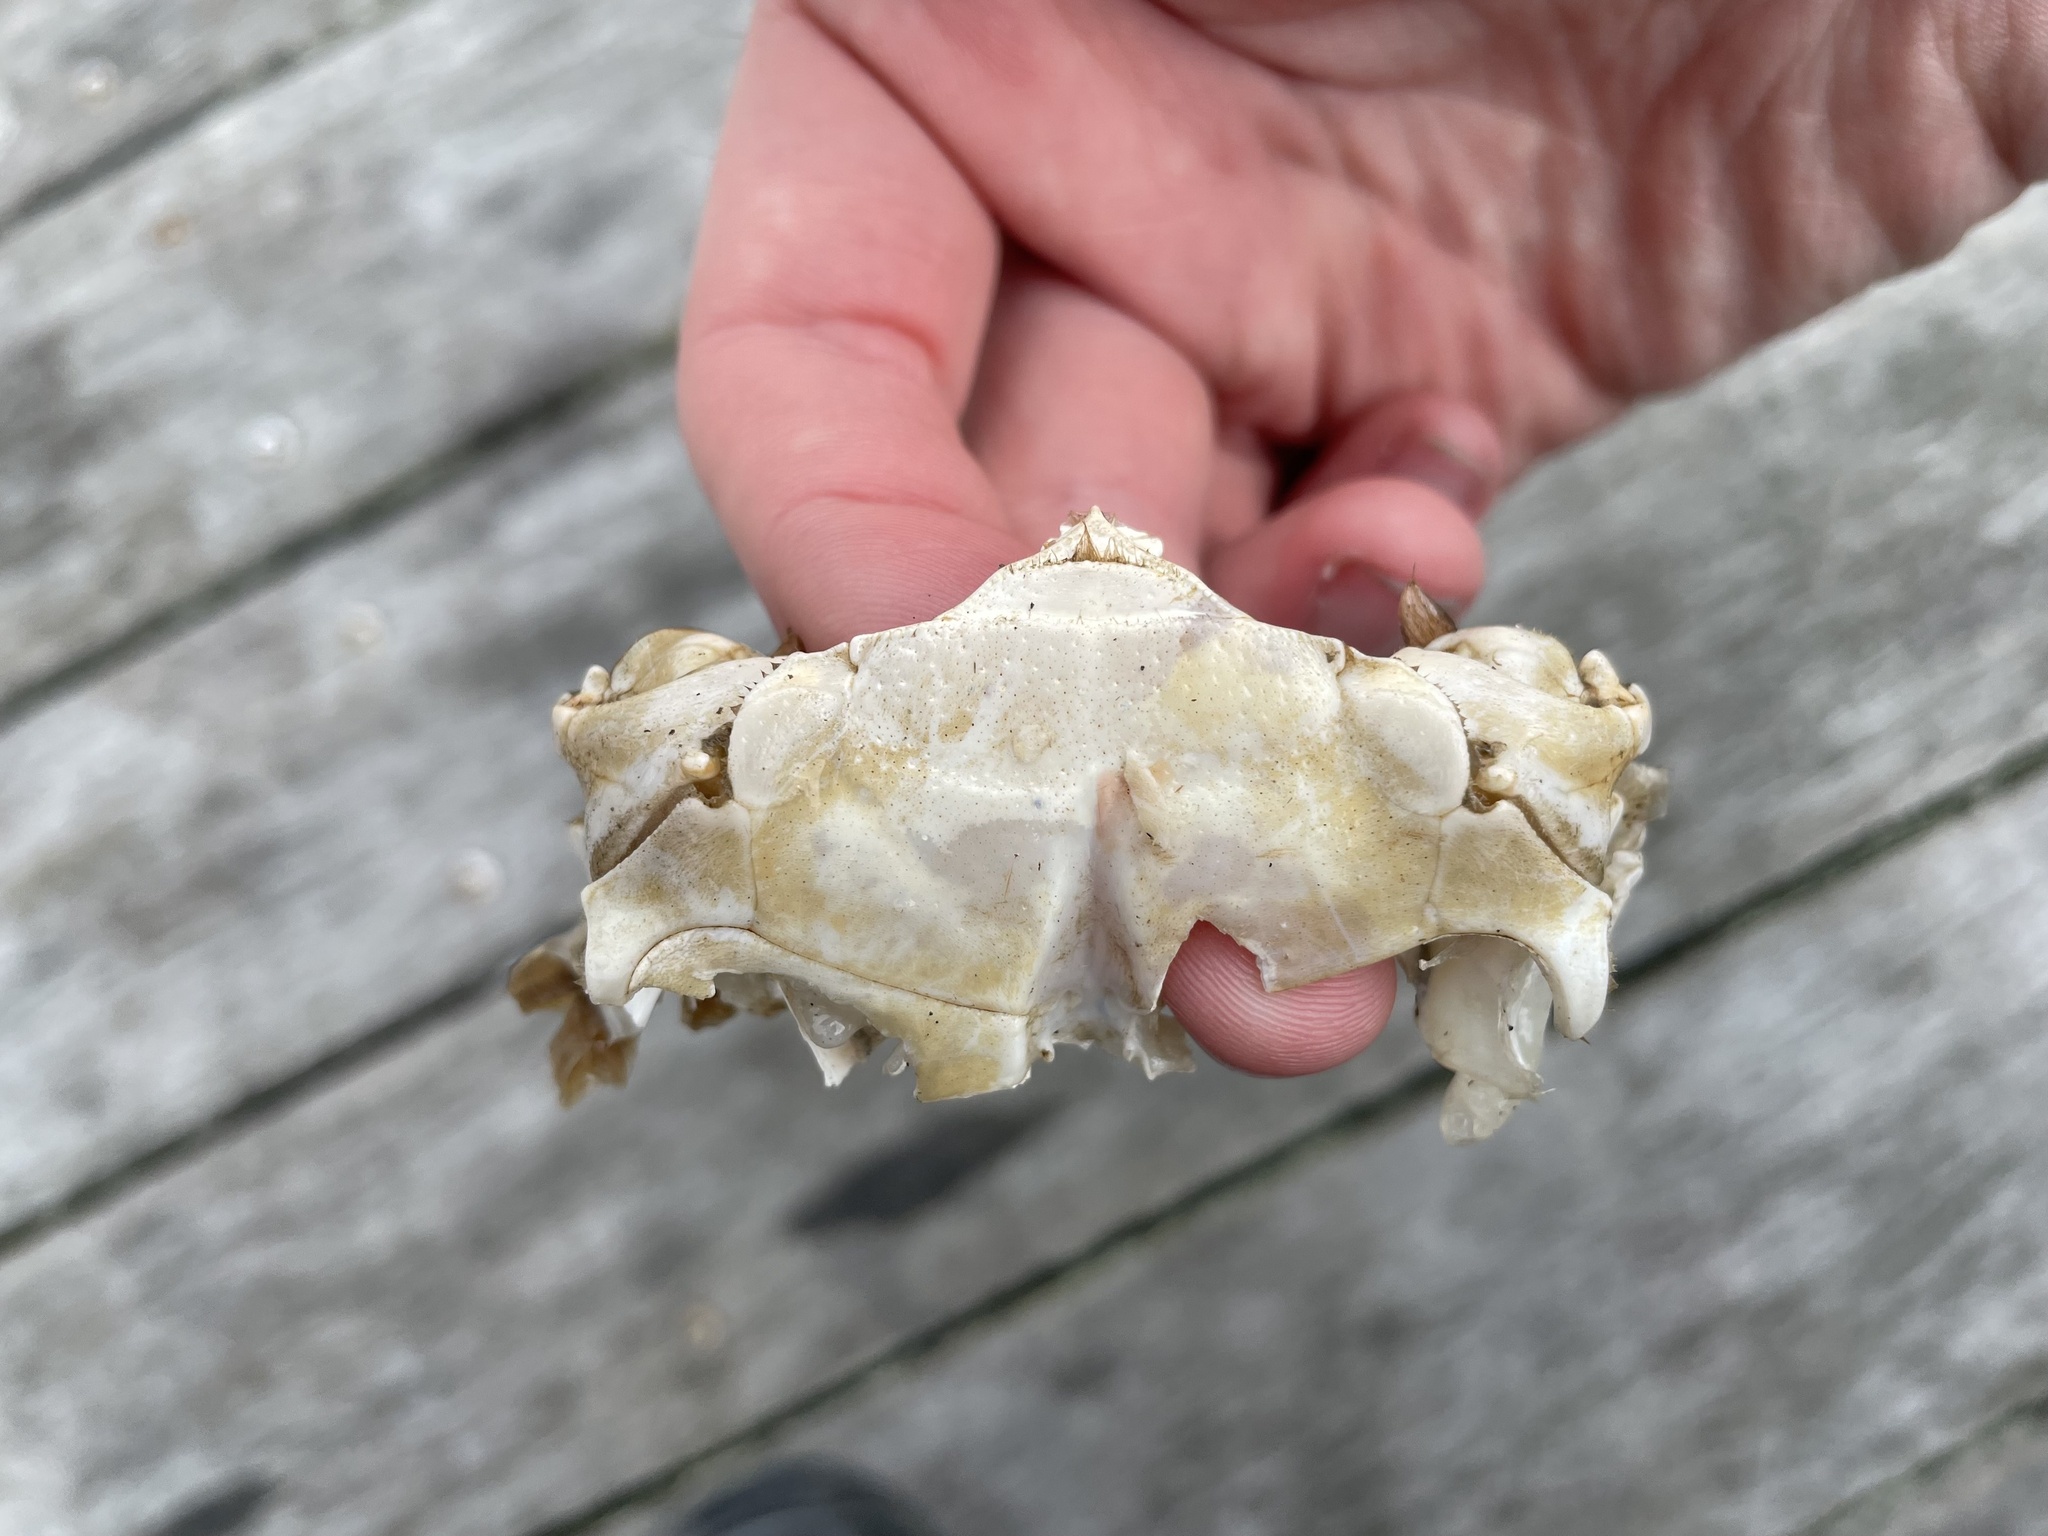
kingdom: Animalia
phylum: Arthropoda
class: Malacostraca
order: Decapoda
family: Portunidae
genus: Callinectes
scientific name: Callinectes sapidus
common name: Blue crab
